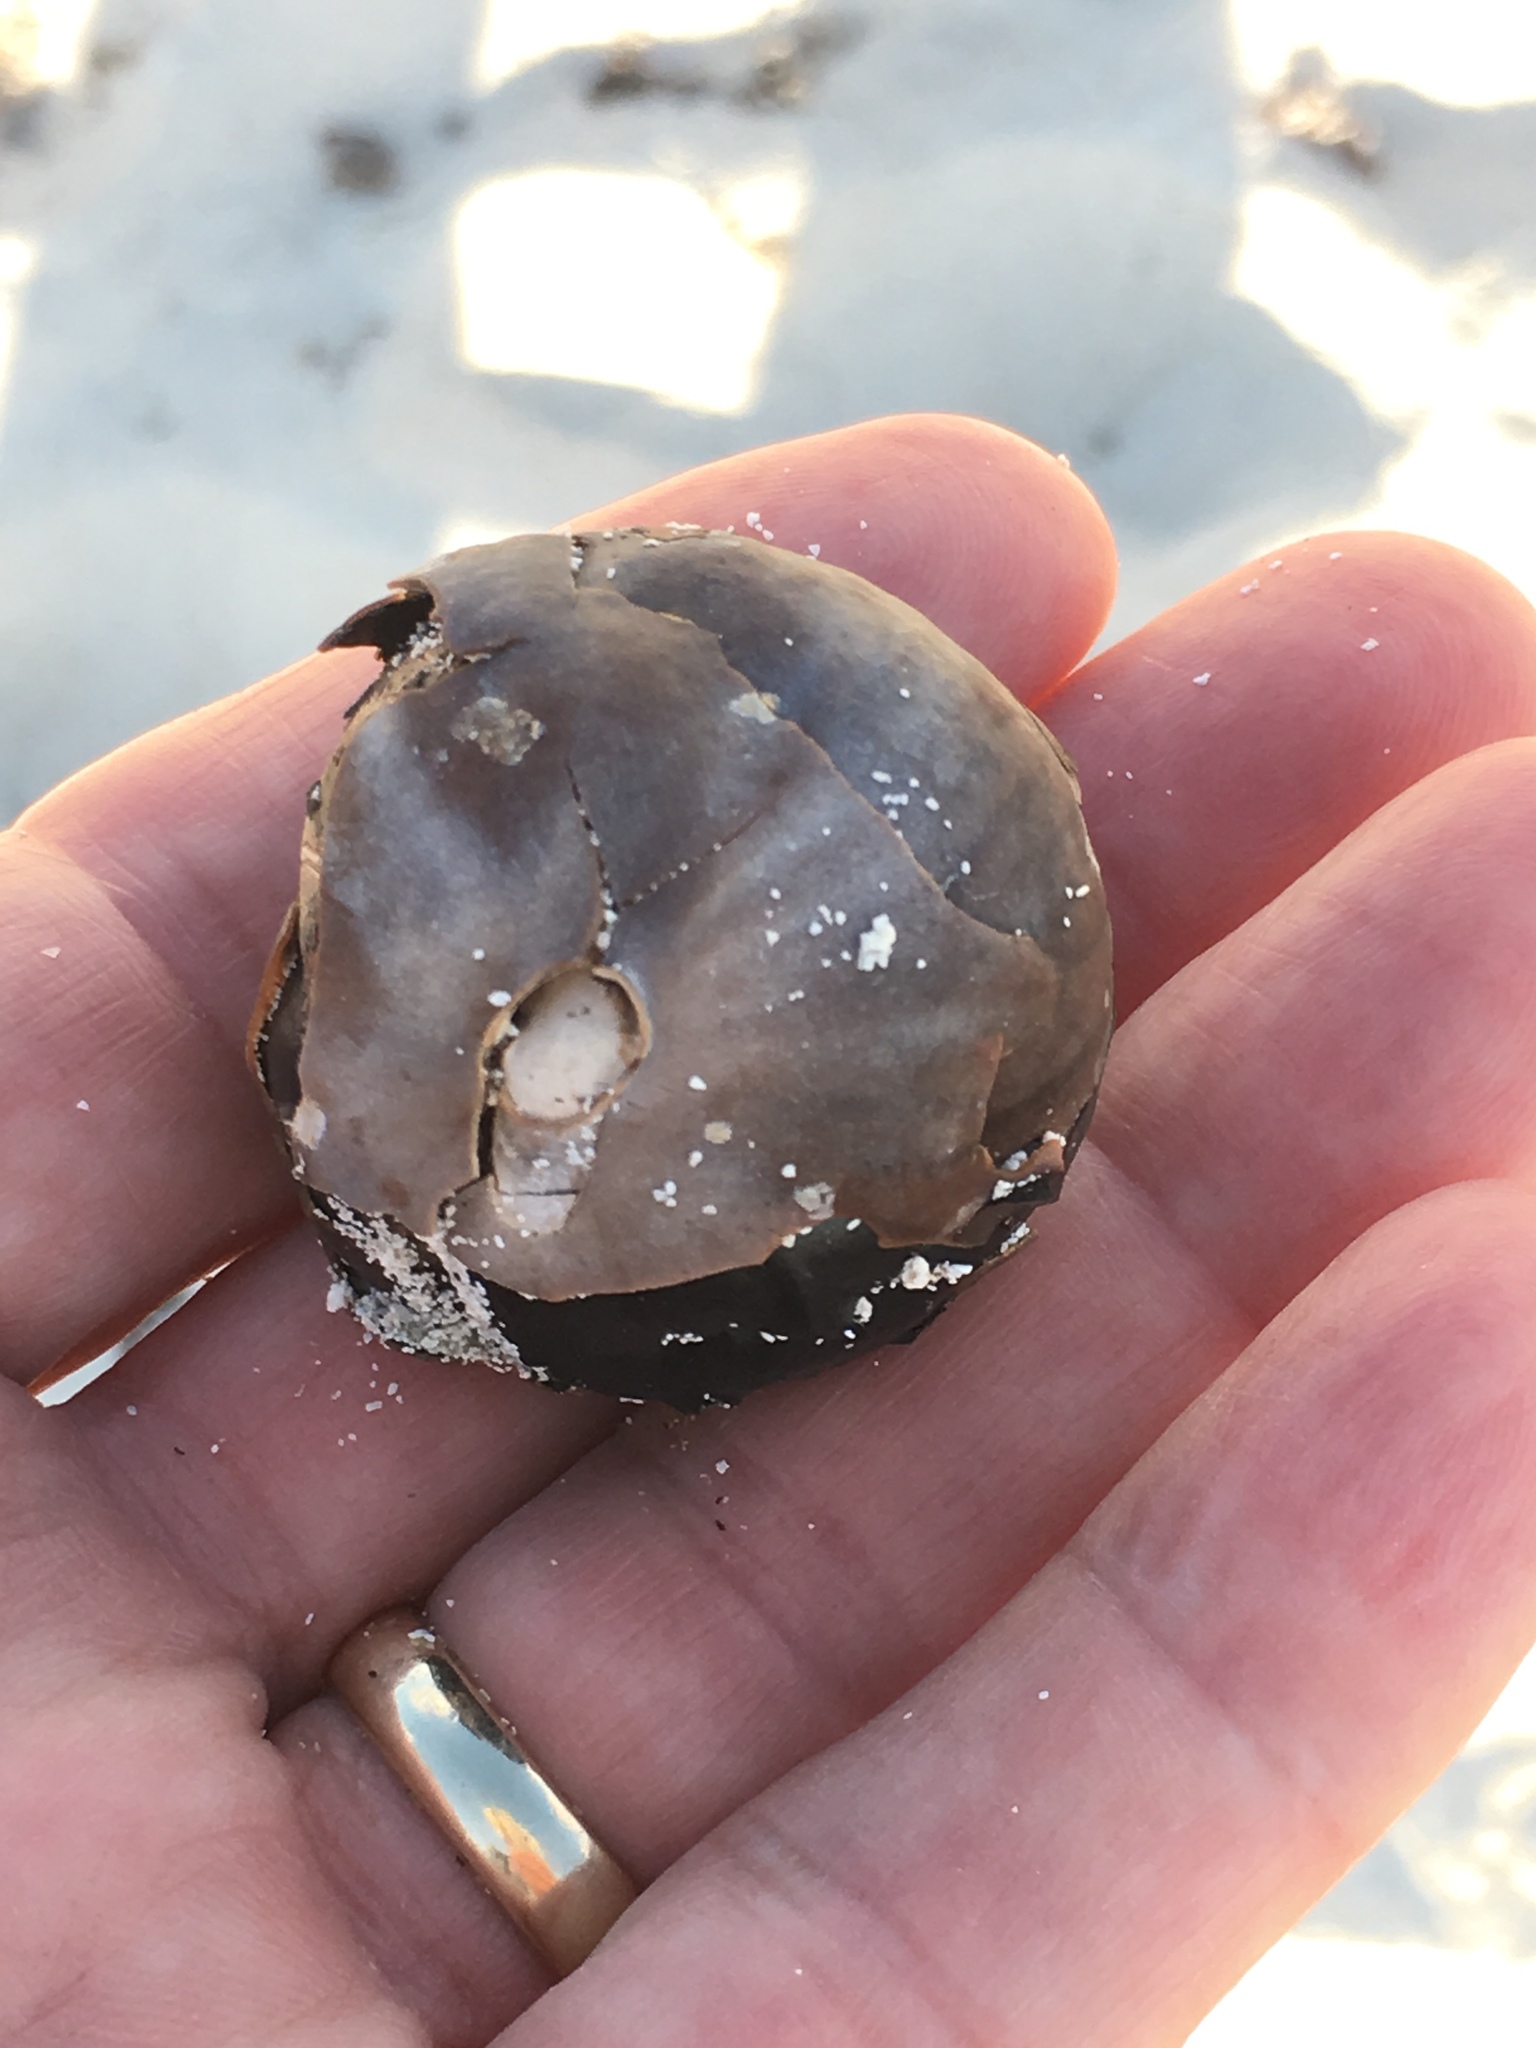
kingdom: Plantae
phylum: Tracheophyta
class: Liliopsida
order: Arecales
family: Arecaceae
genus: Manicaria
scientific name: Manicaria saccifera
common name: Sea coconut
